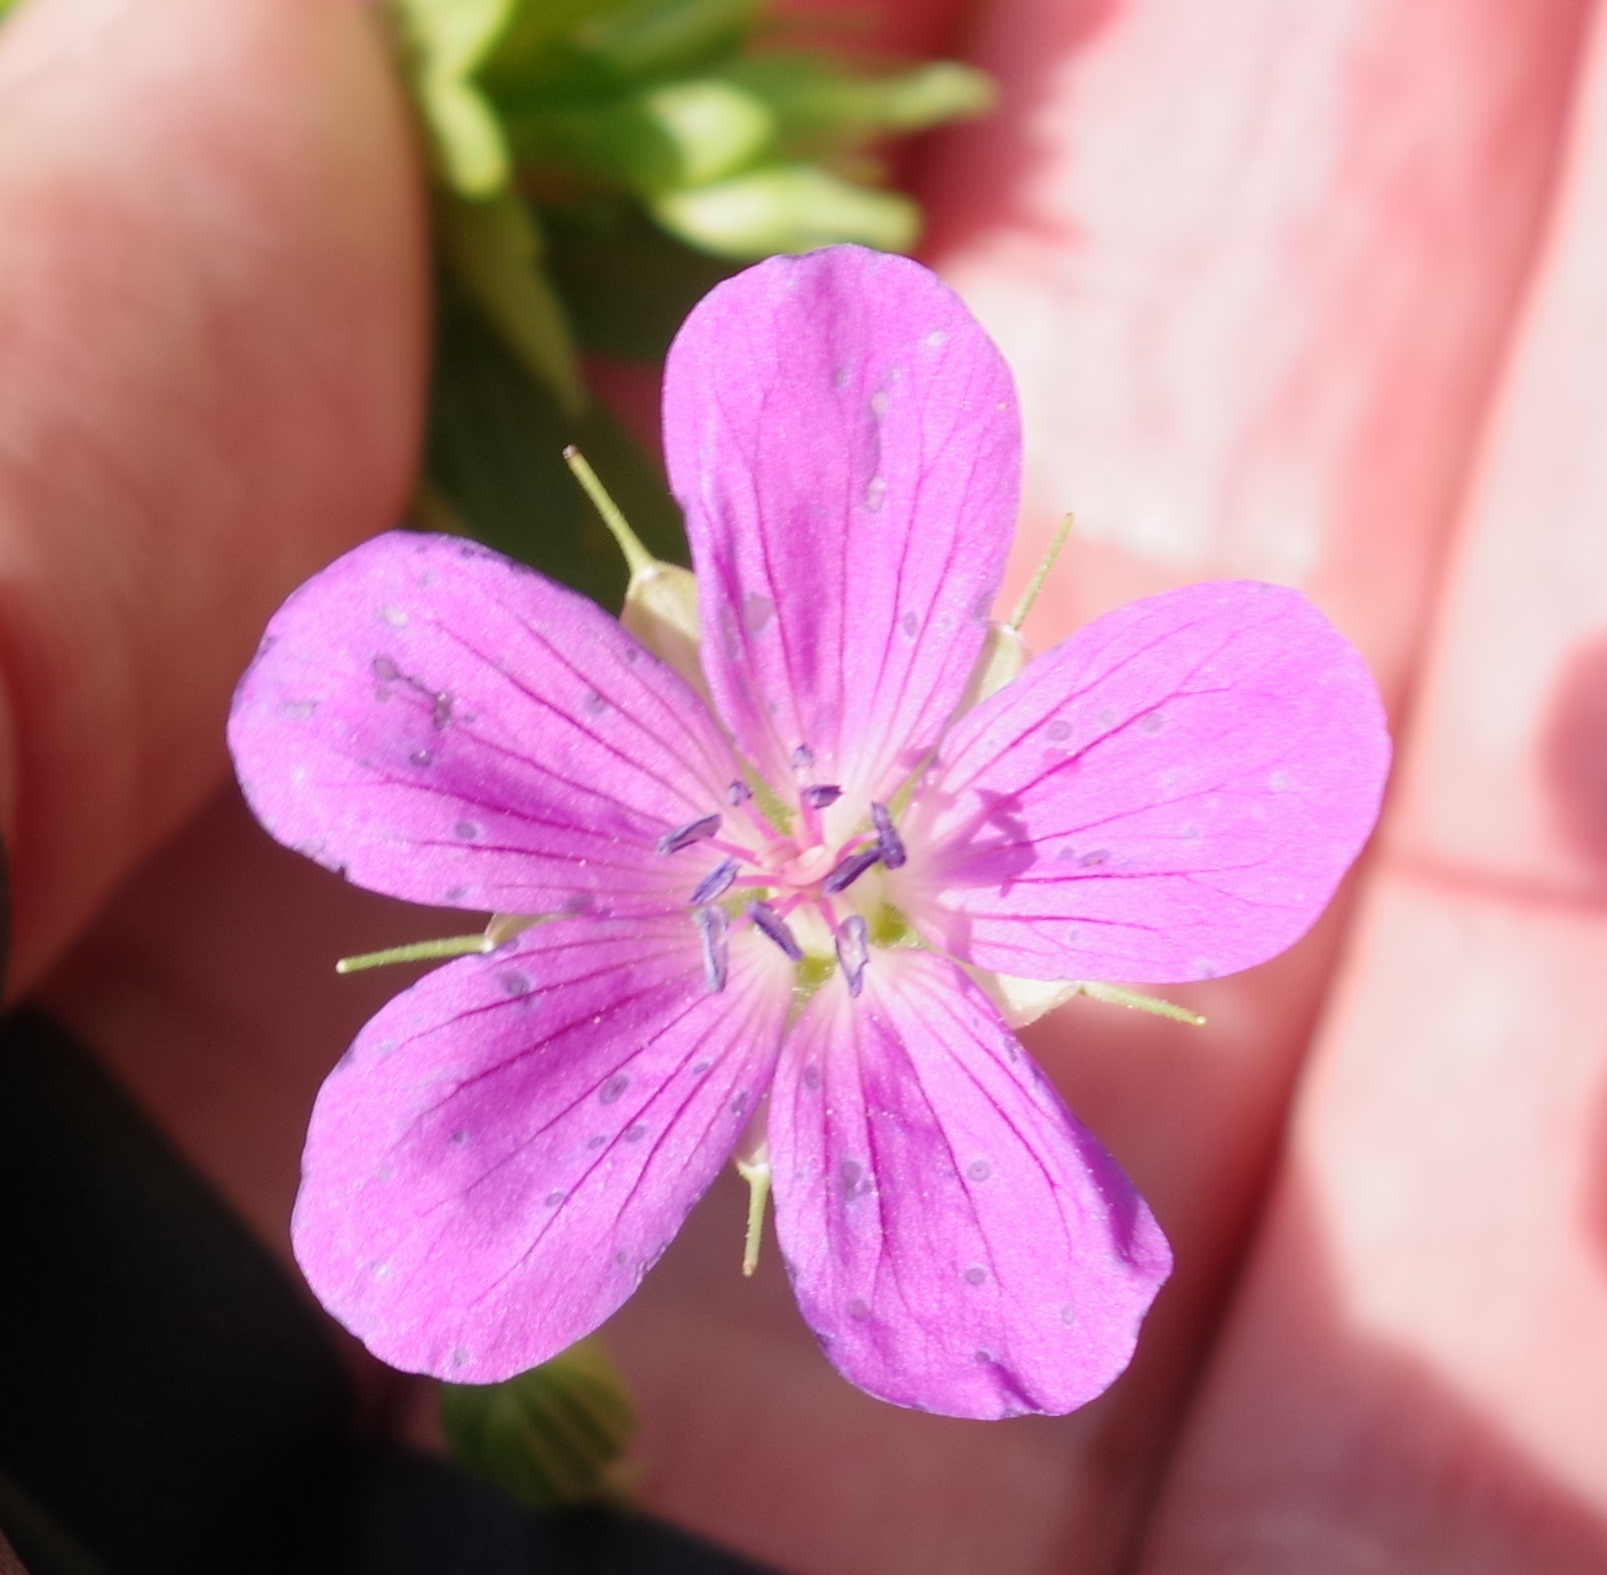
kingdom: Plantae
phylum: Tracheophyta
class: Magnoliopsida
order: Geraniales
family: Geraniaceae
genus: Geranium
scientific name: Geranium palustre
